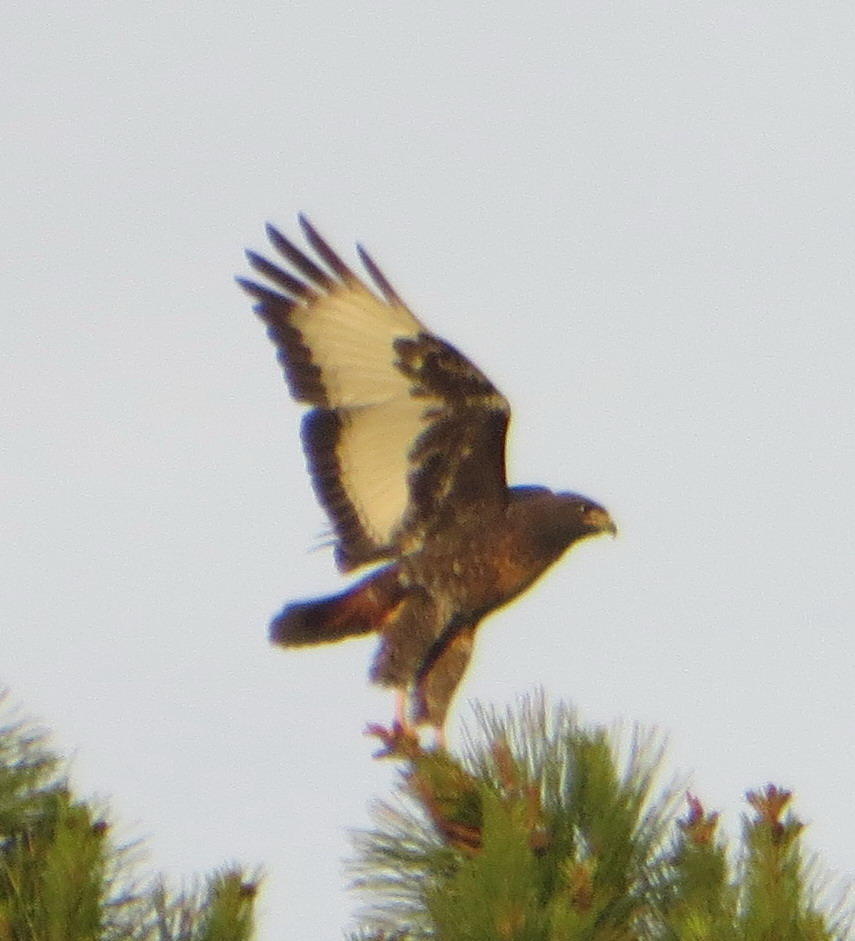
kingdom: Animalia
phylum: Chordata
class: Aves
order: Accipitriformes
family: Accipitridae
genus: Buteo
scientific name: Buteo rufofuscus
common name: Jackal buzzard
